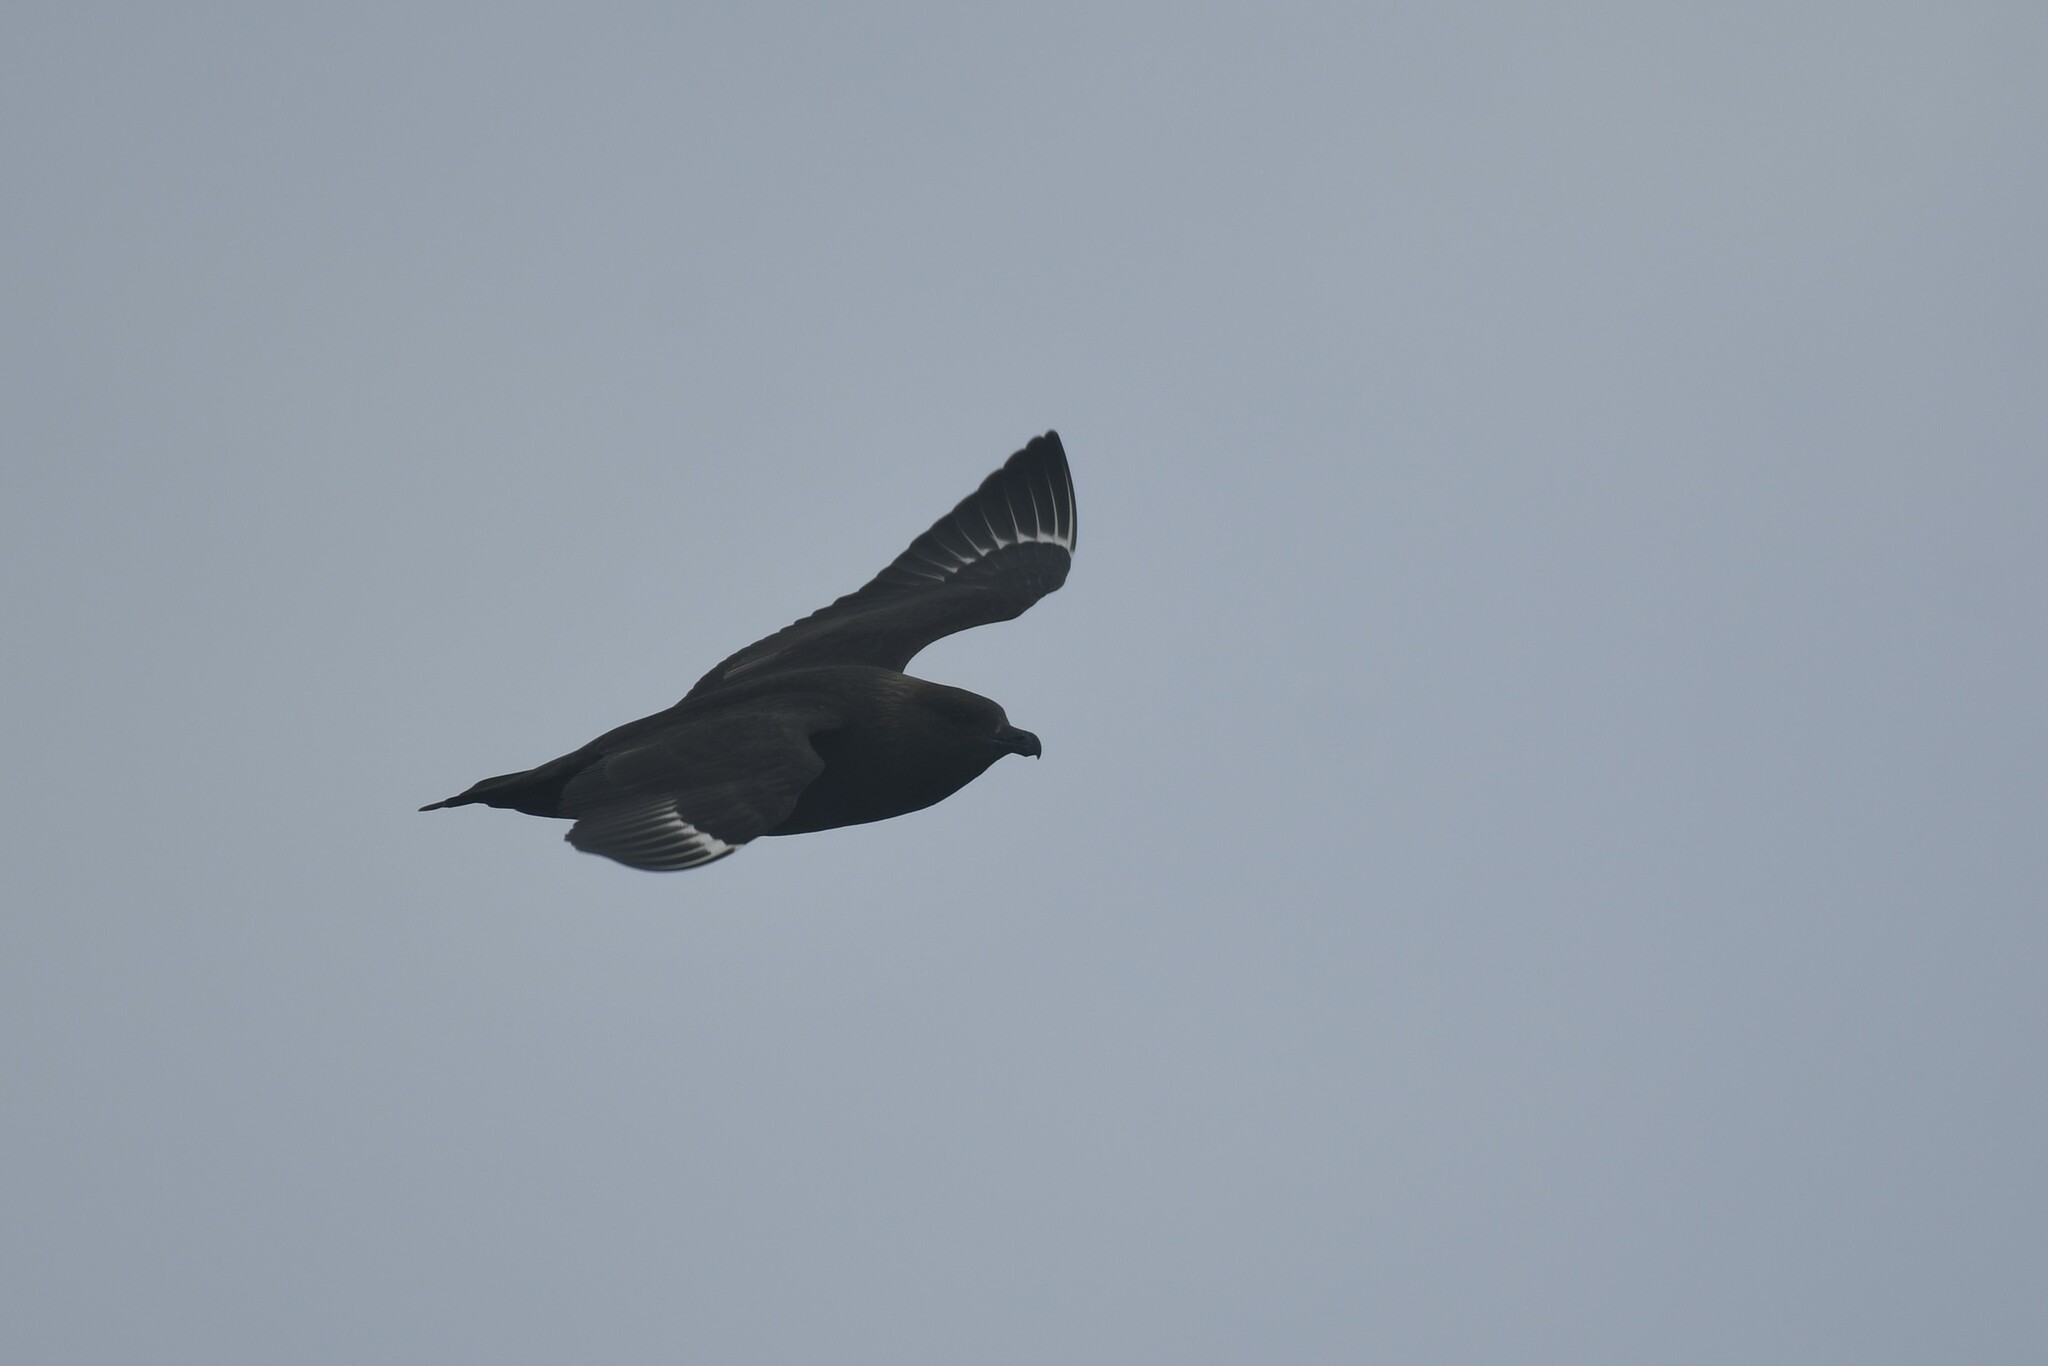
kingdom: Animalia
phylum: Chordata
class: Aves
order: Charadriiformes
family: Stercorariidae
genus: Stercorarius
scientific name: Stercorarius maccormicki
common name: South polar skua
